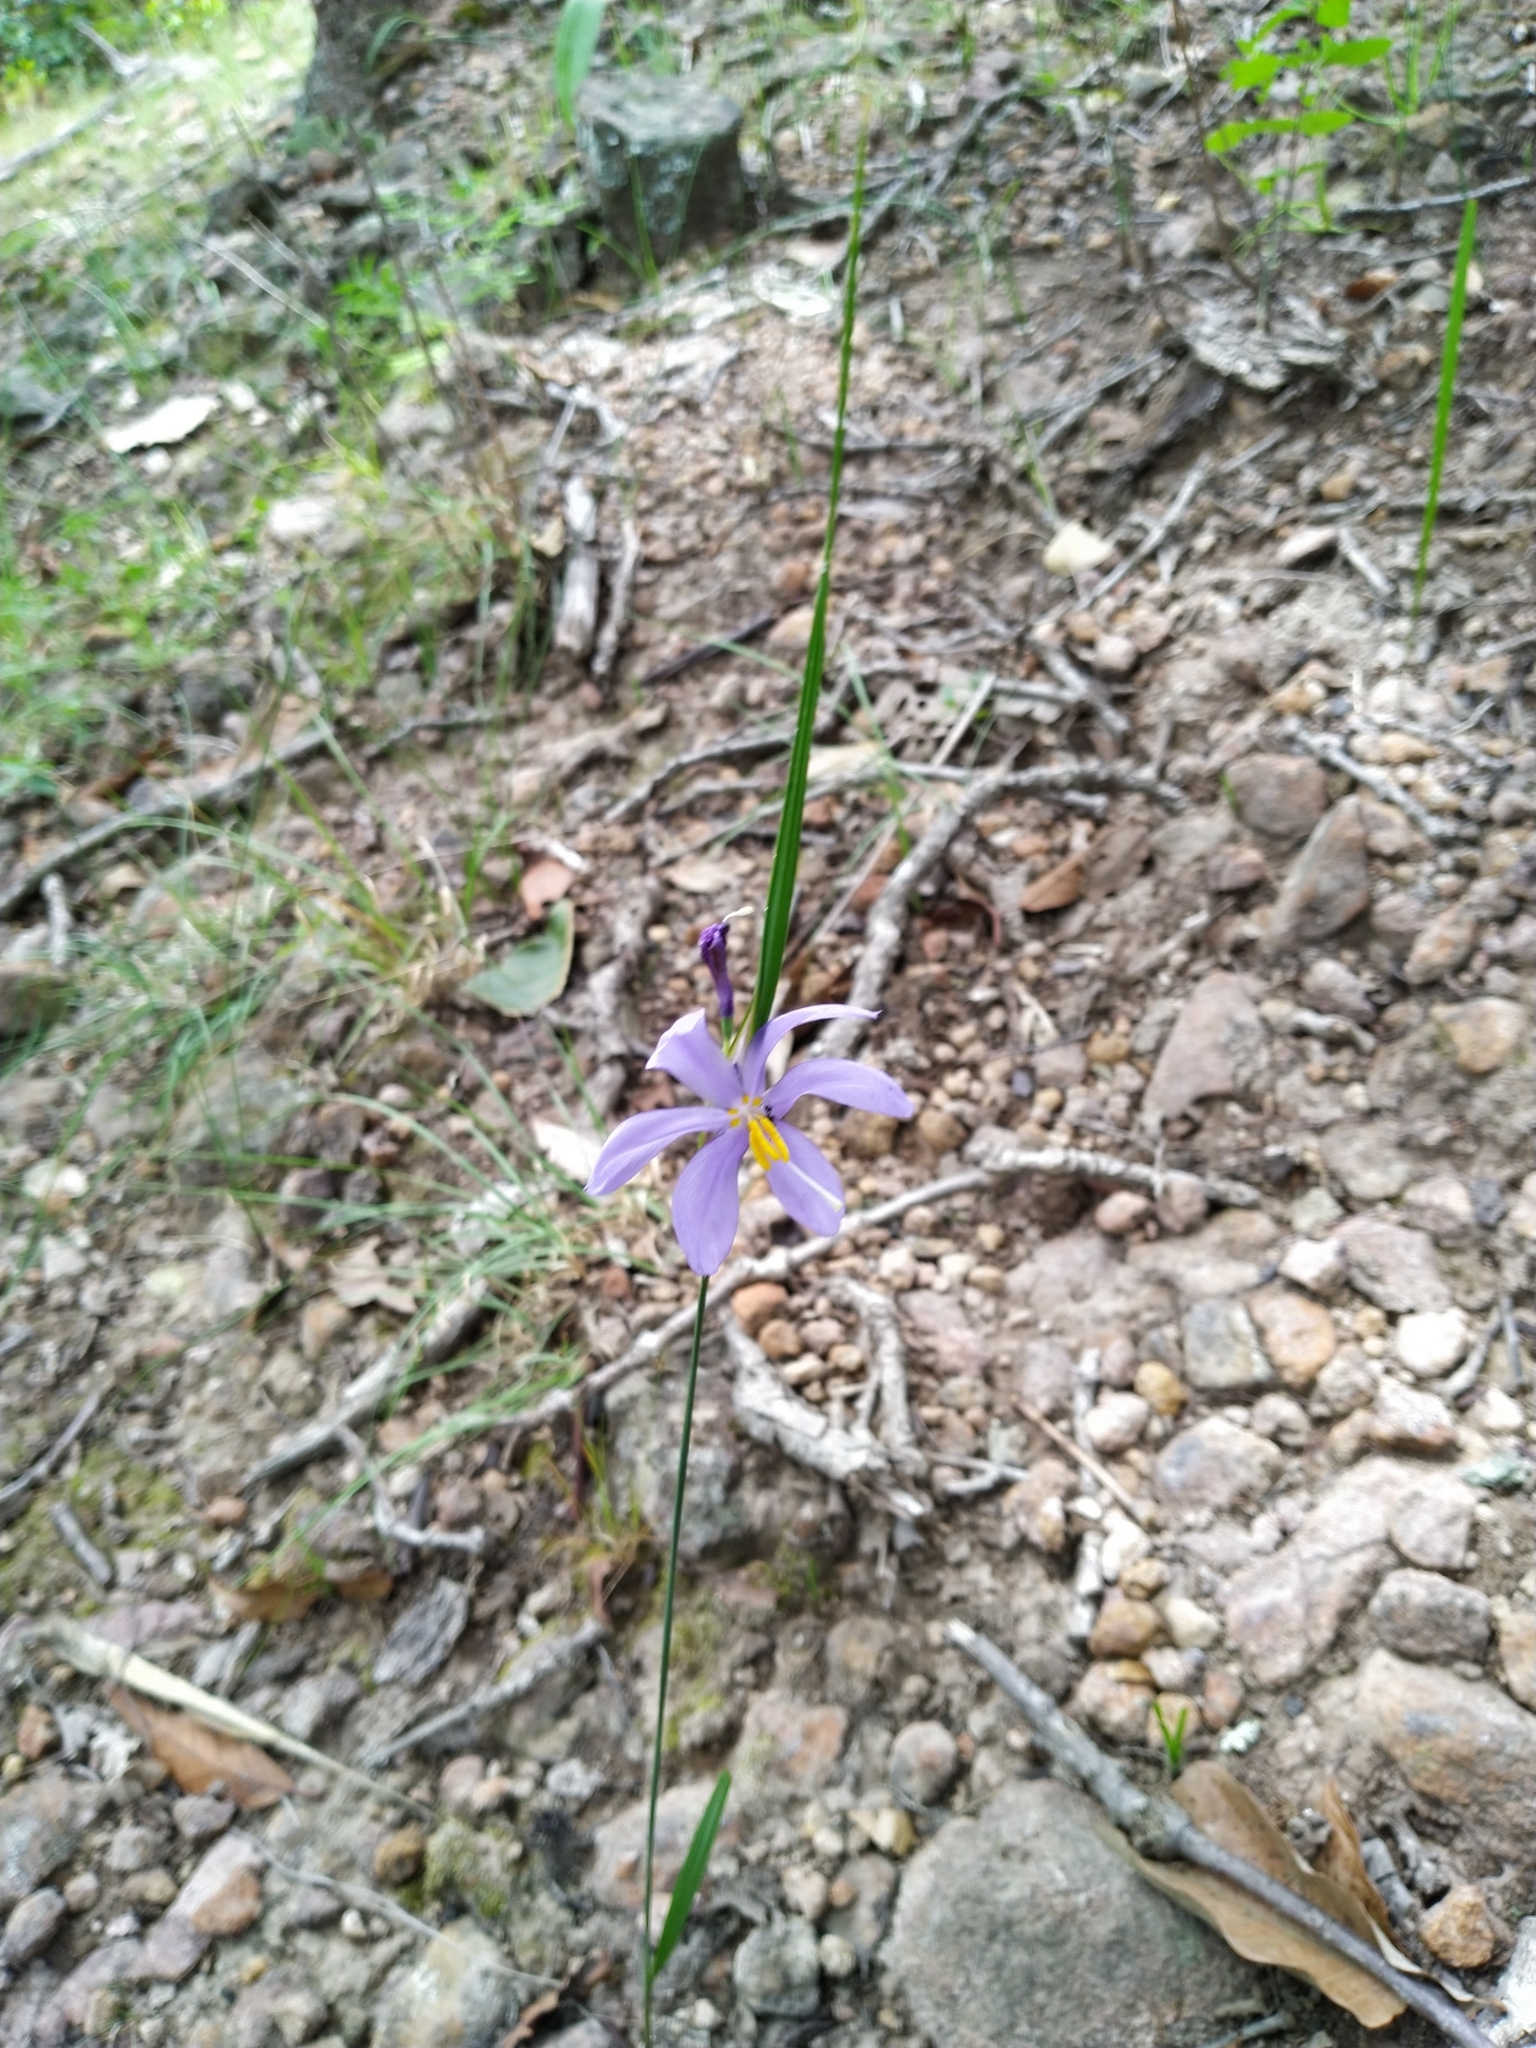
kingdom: Plantae
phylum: Tracheophyta
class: Liliopsida
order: Asparagales
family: Iridaceae
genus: Tigridia
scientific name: Tigridia longispatha
